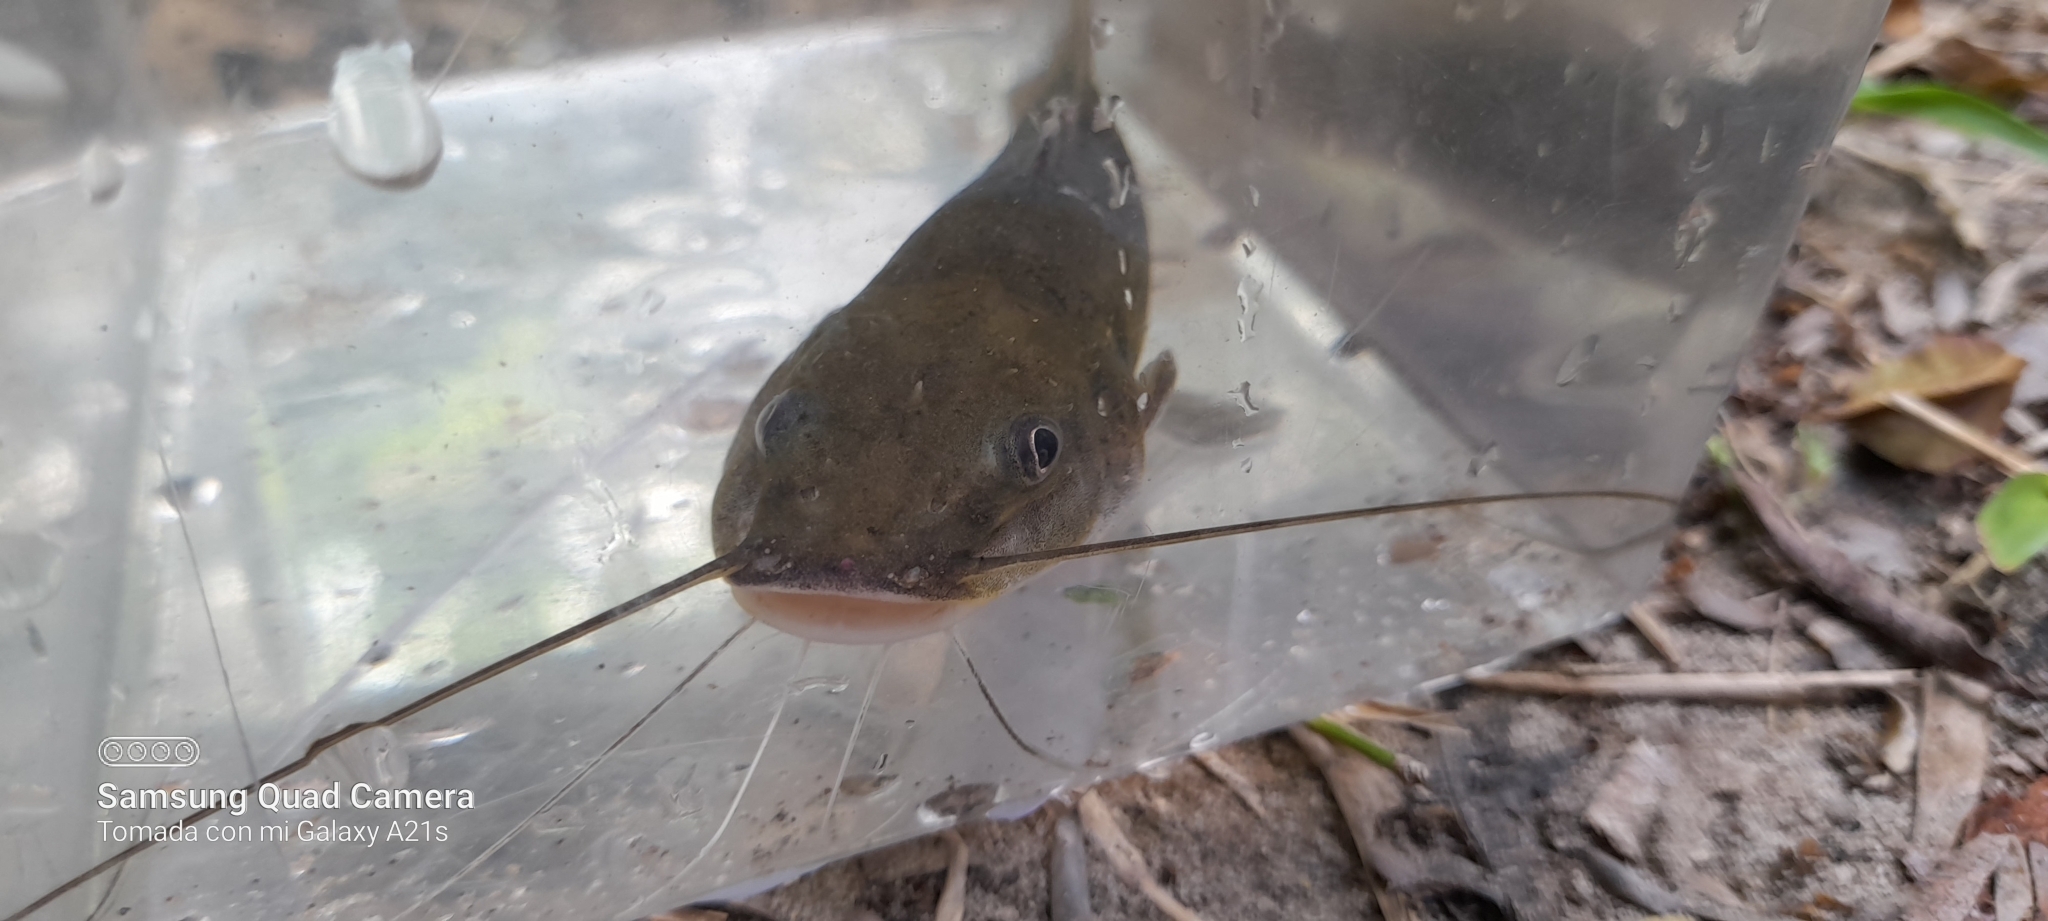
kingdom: Animalia
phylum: Chordata
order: Siluriformes
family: Heptapteridae
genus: Rhamdia
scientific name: Rhamdia guatemalensis
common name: Pale catfish
